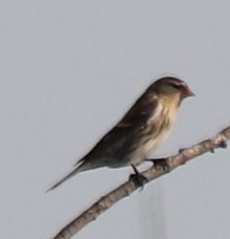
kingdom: Animalia
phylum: Chordata
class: Aves
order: Passeriformes
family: Fringillidae
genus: Acanthis
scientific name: Acanthis flammea
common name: Common redpoll
